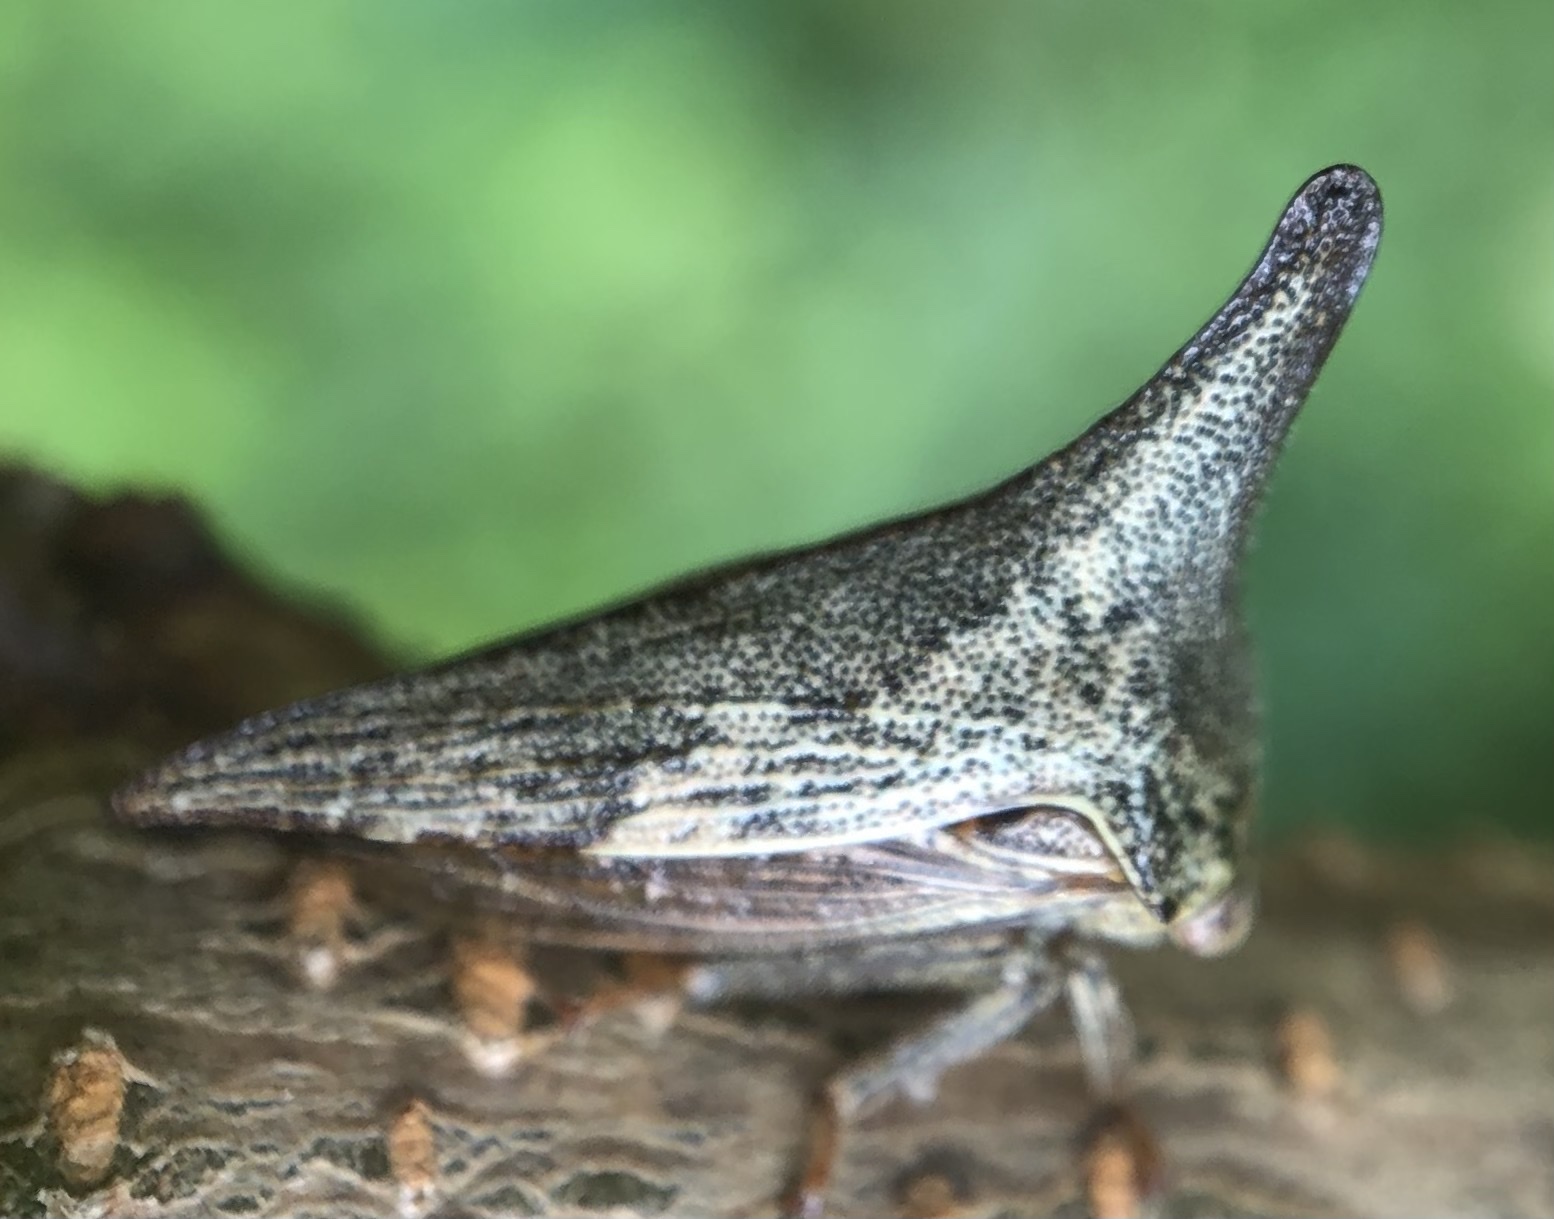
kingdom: Animalia
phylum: Arthropoda
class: Insecta
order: Hemiptera
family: Membracidae
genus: Thelia
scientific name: Thelia bimaculata
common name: Locust treehopper
